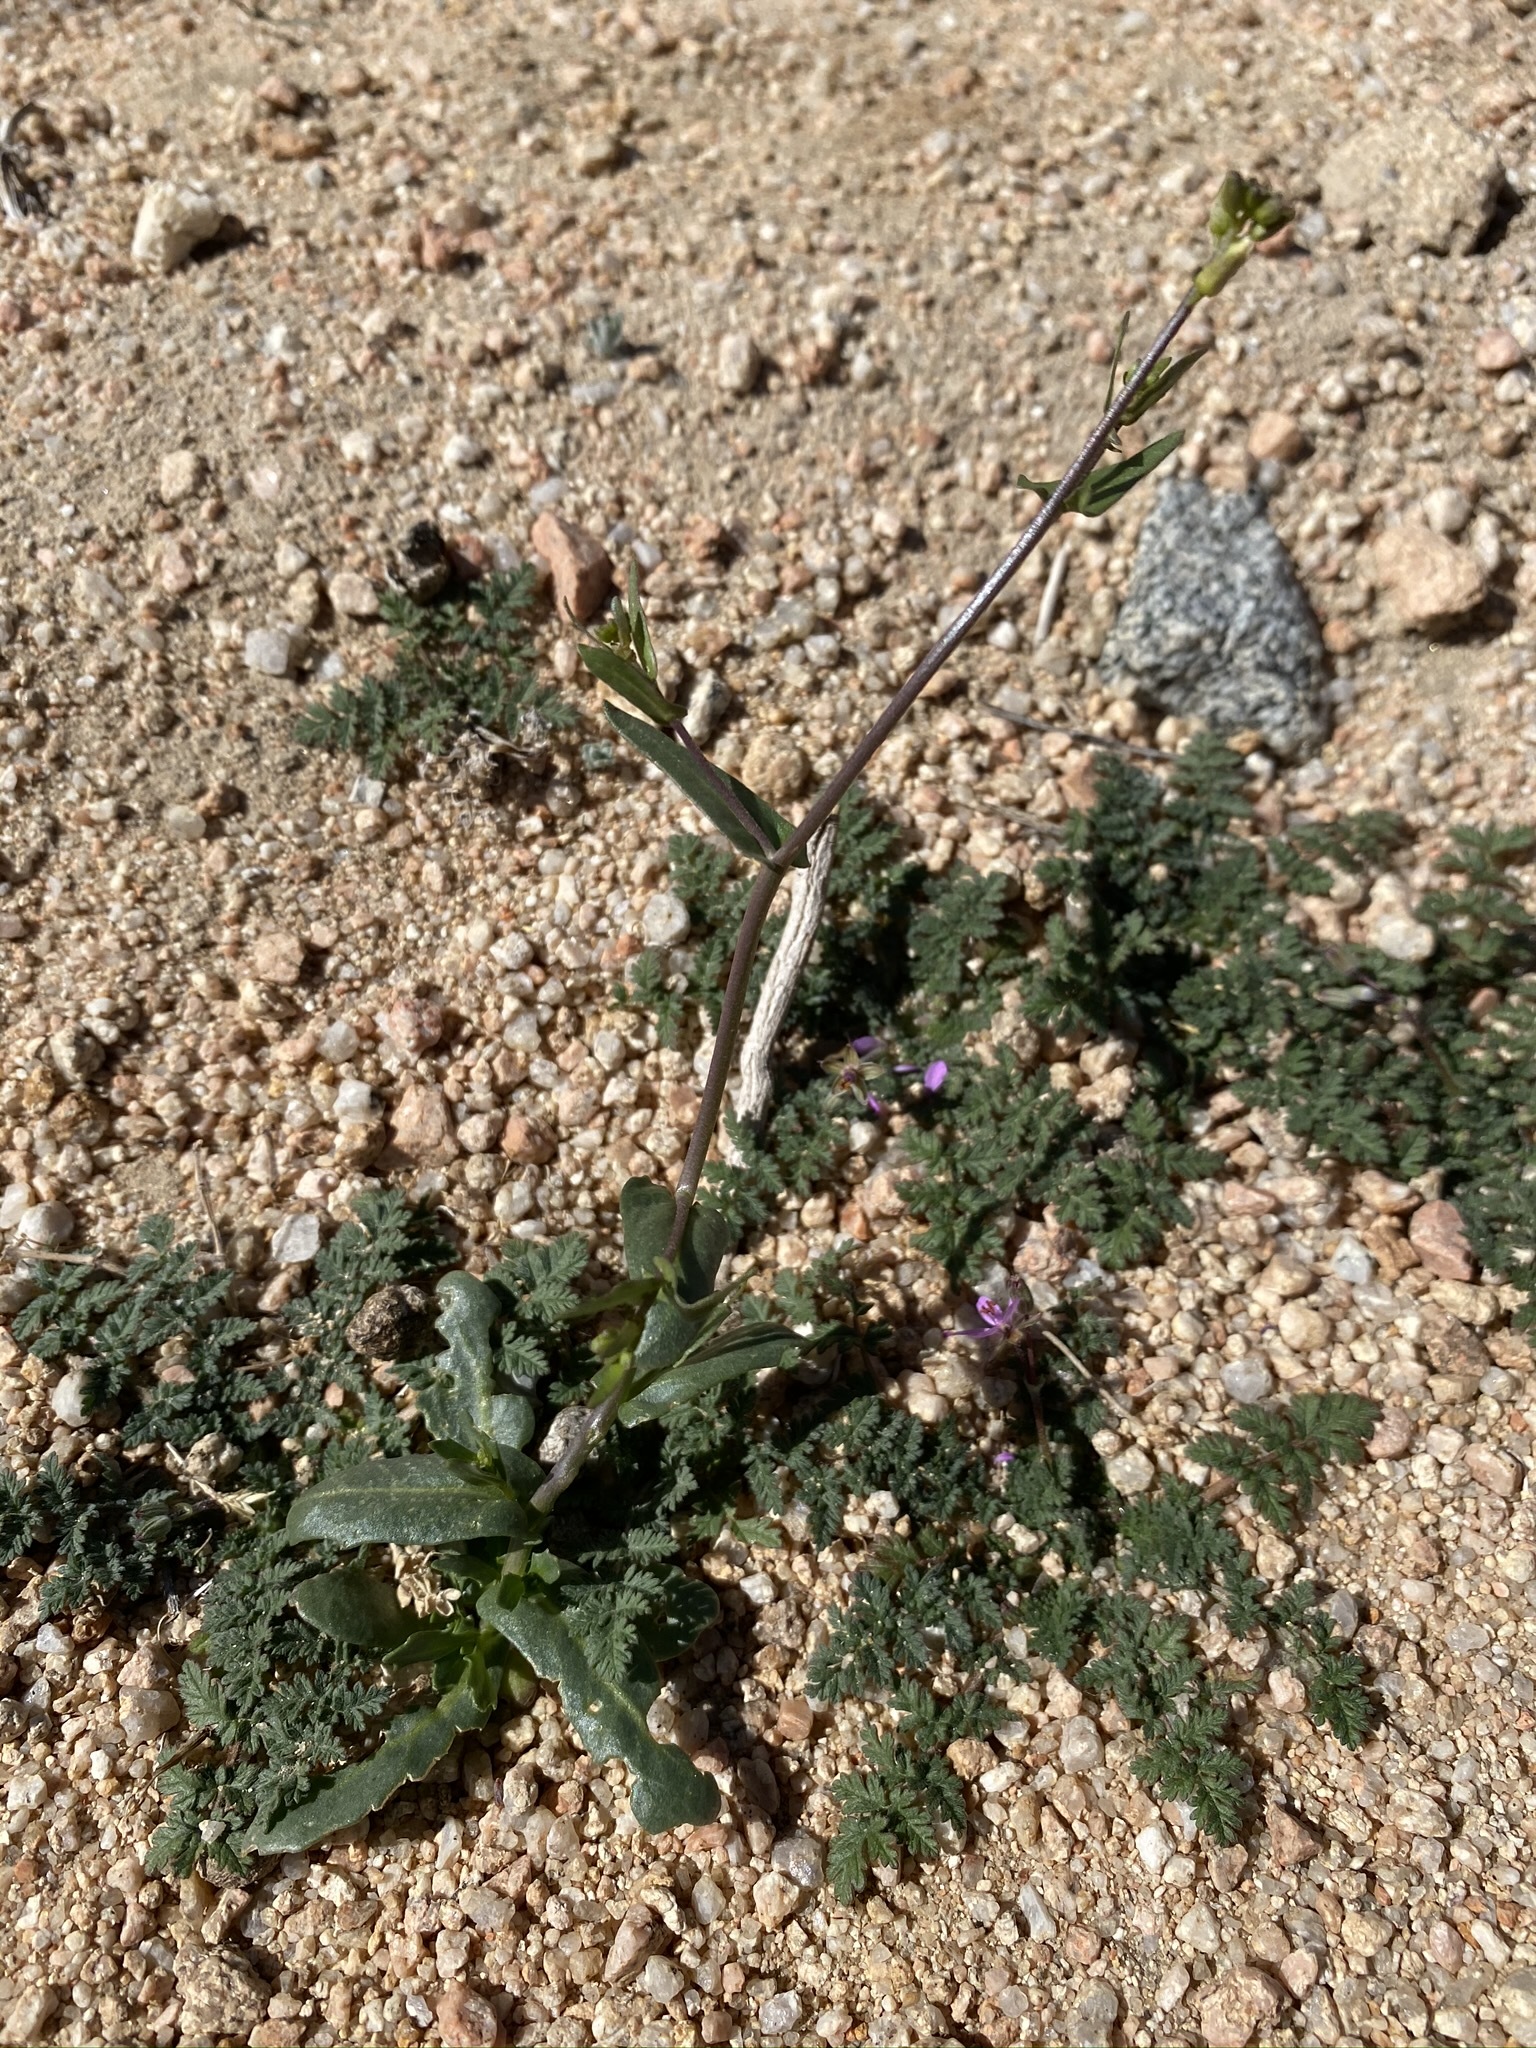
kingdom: Plantae
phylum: Tracheophyta
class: Magnoliopsida
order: Brassicales
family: Brassicaceae
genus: Streptanthus
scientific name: Streptanthus cooperi
